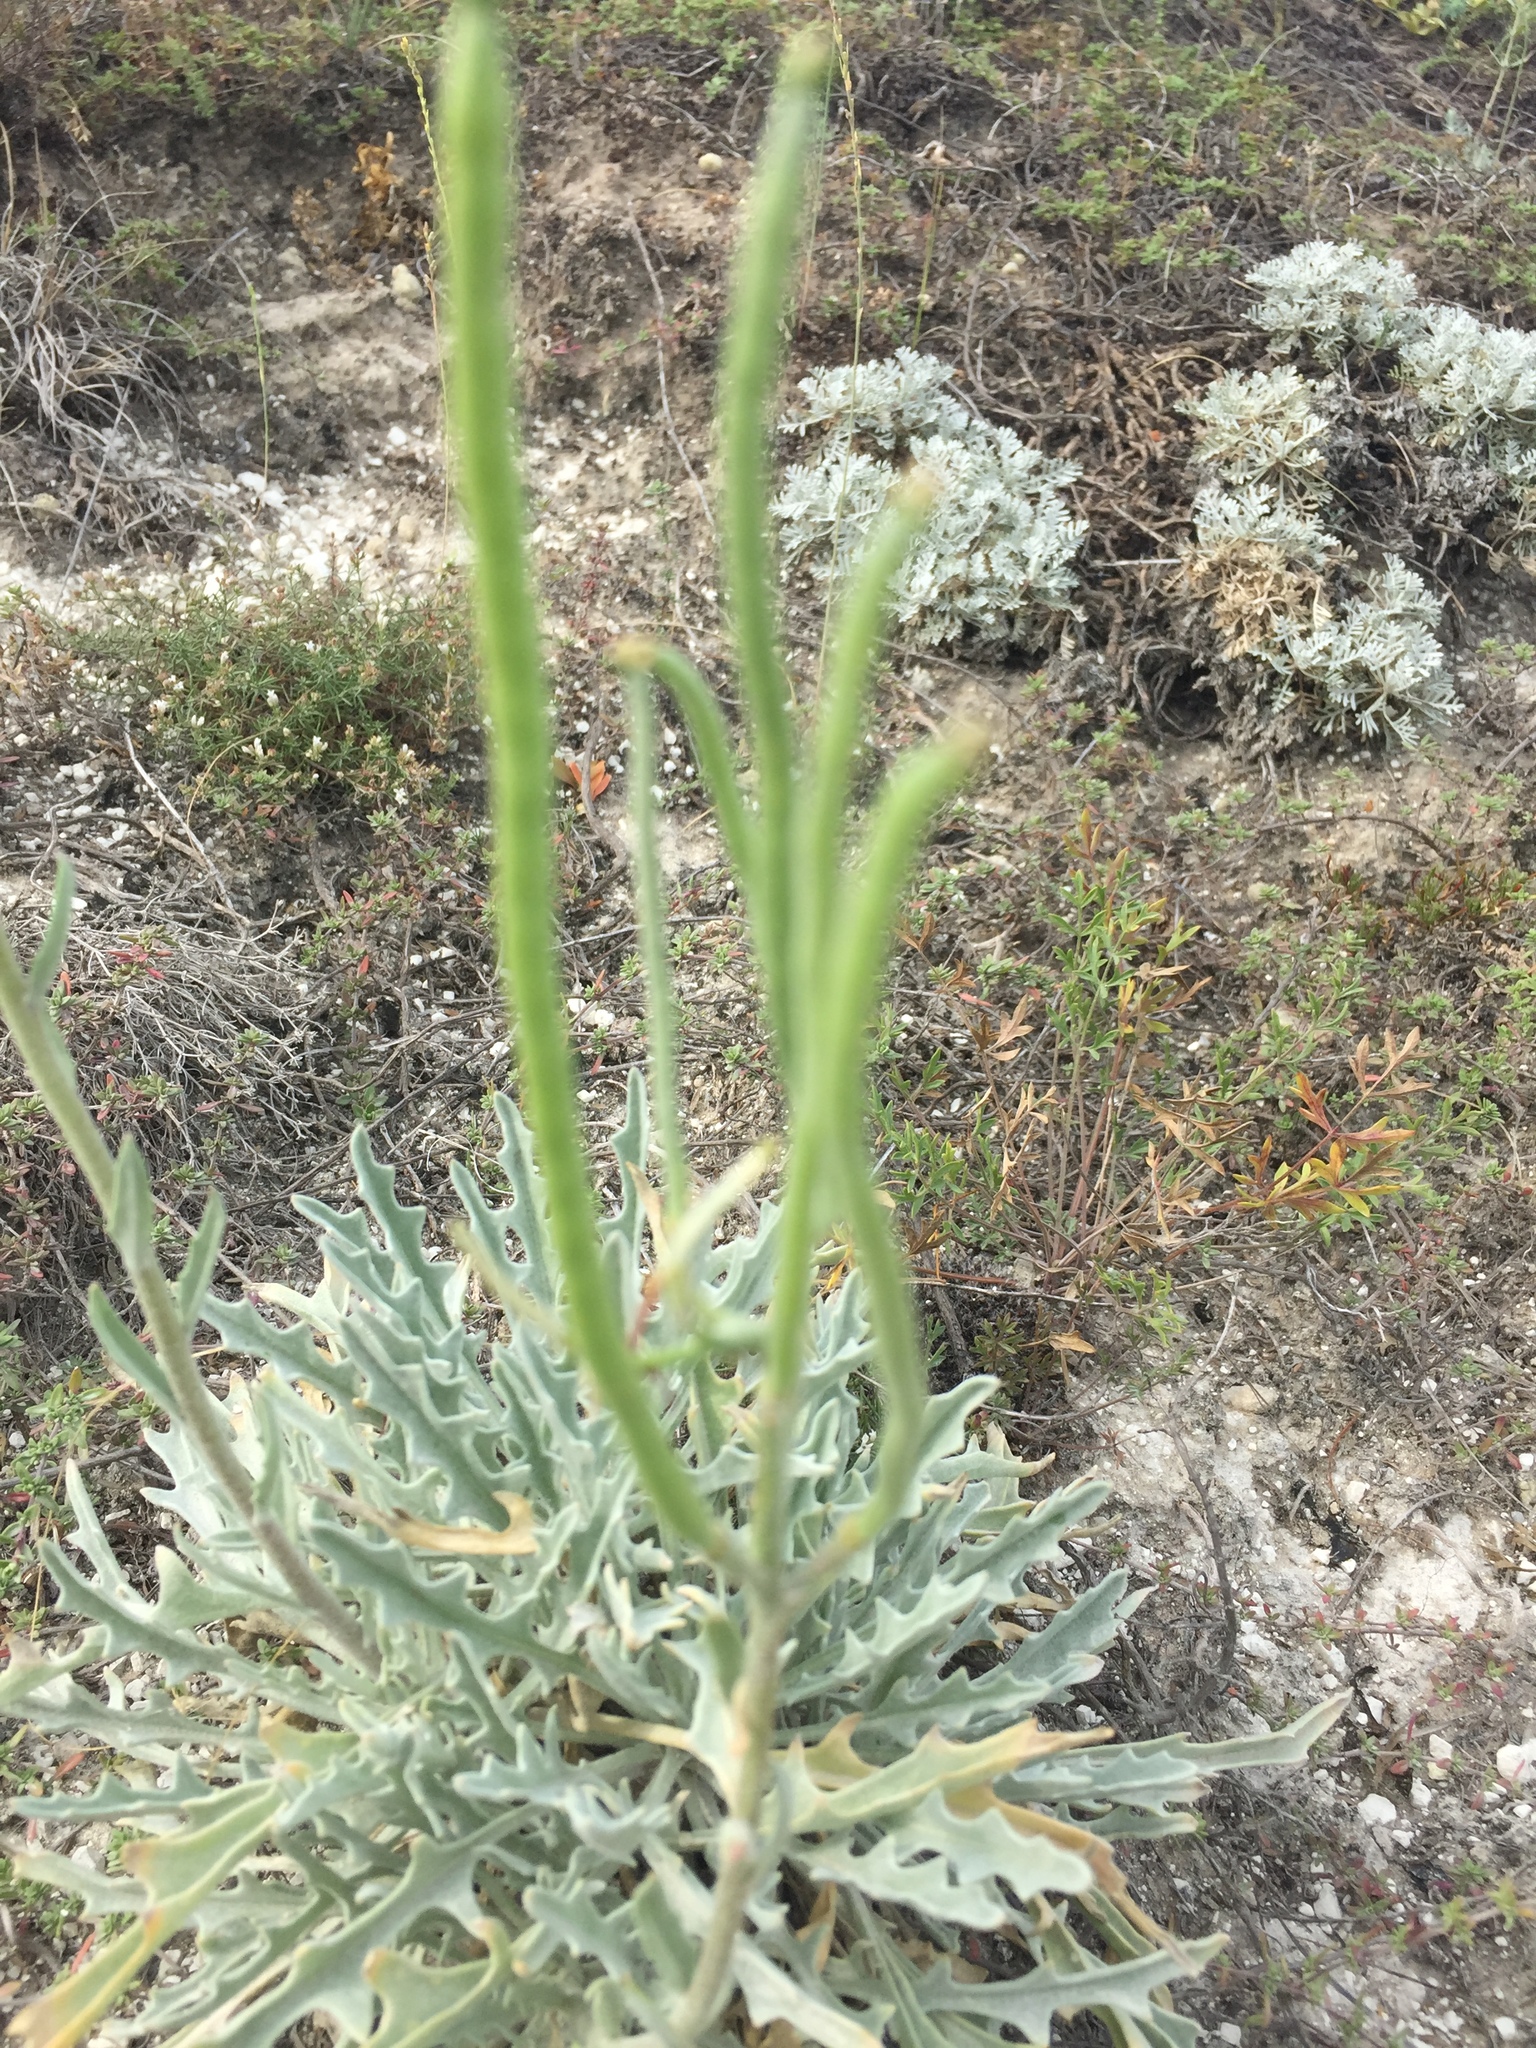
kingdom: Plantae
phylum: Tracheophyta
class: Magnoliopsida
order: Brassicales
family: Brassicaceae
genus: Matthiola
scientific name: Matthiola fragrans
